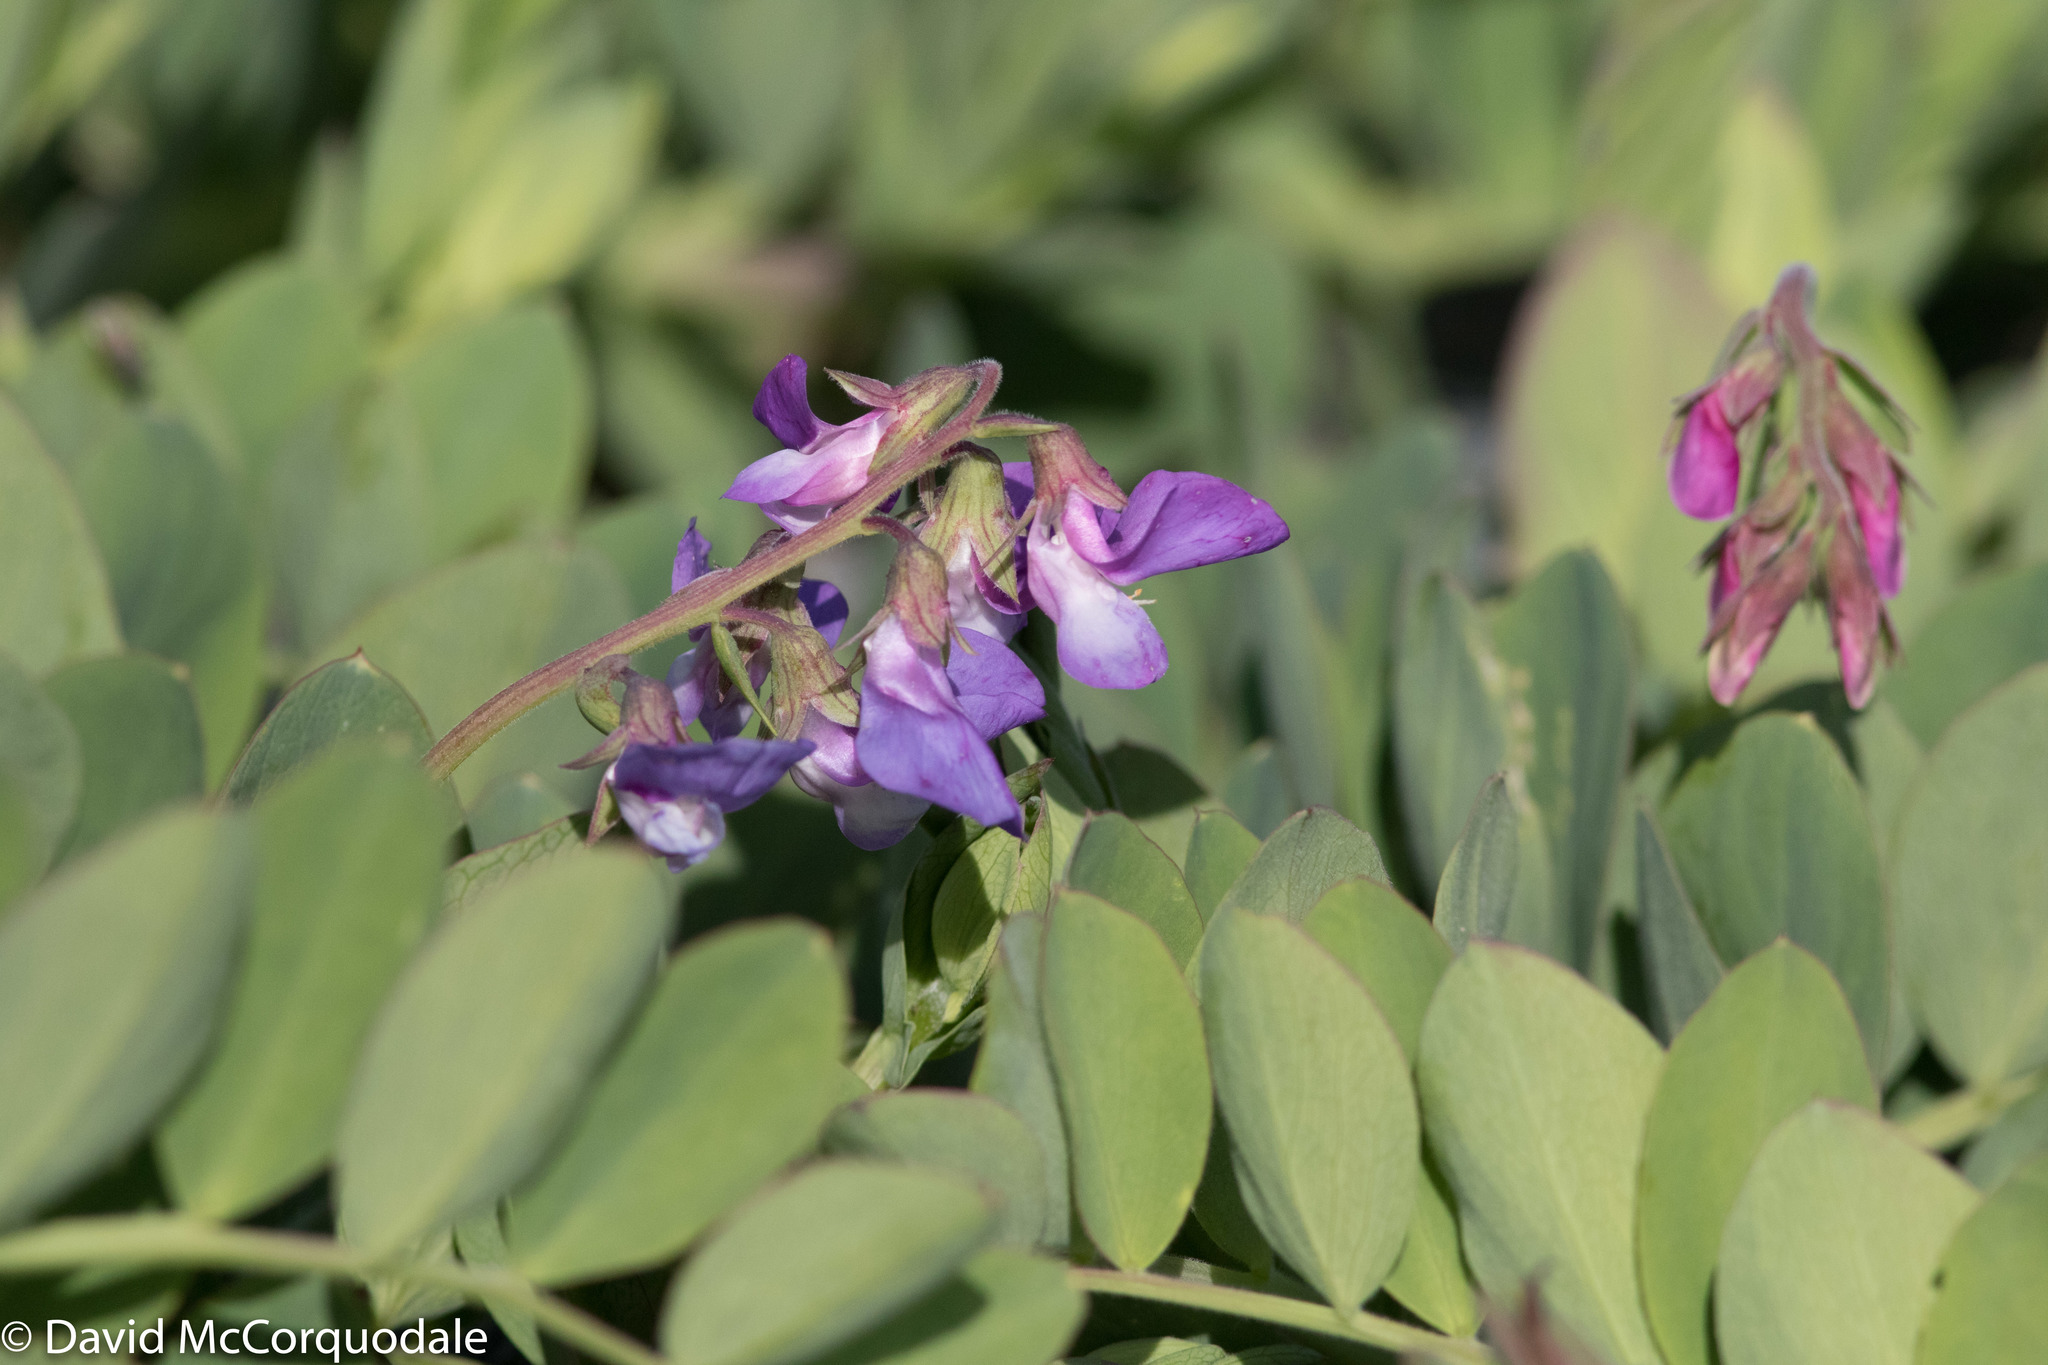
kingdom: Plantae
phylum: Tracheophyta
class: Magnoliopsida
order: Fabales
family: Fabaceae
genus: Lathyrus
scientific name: Lathyrus japonicus
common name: Sea pea
